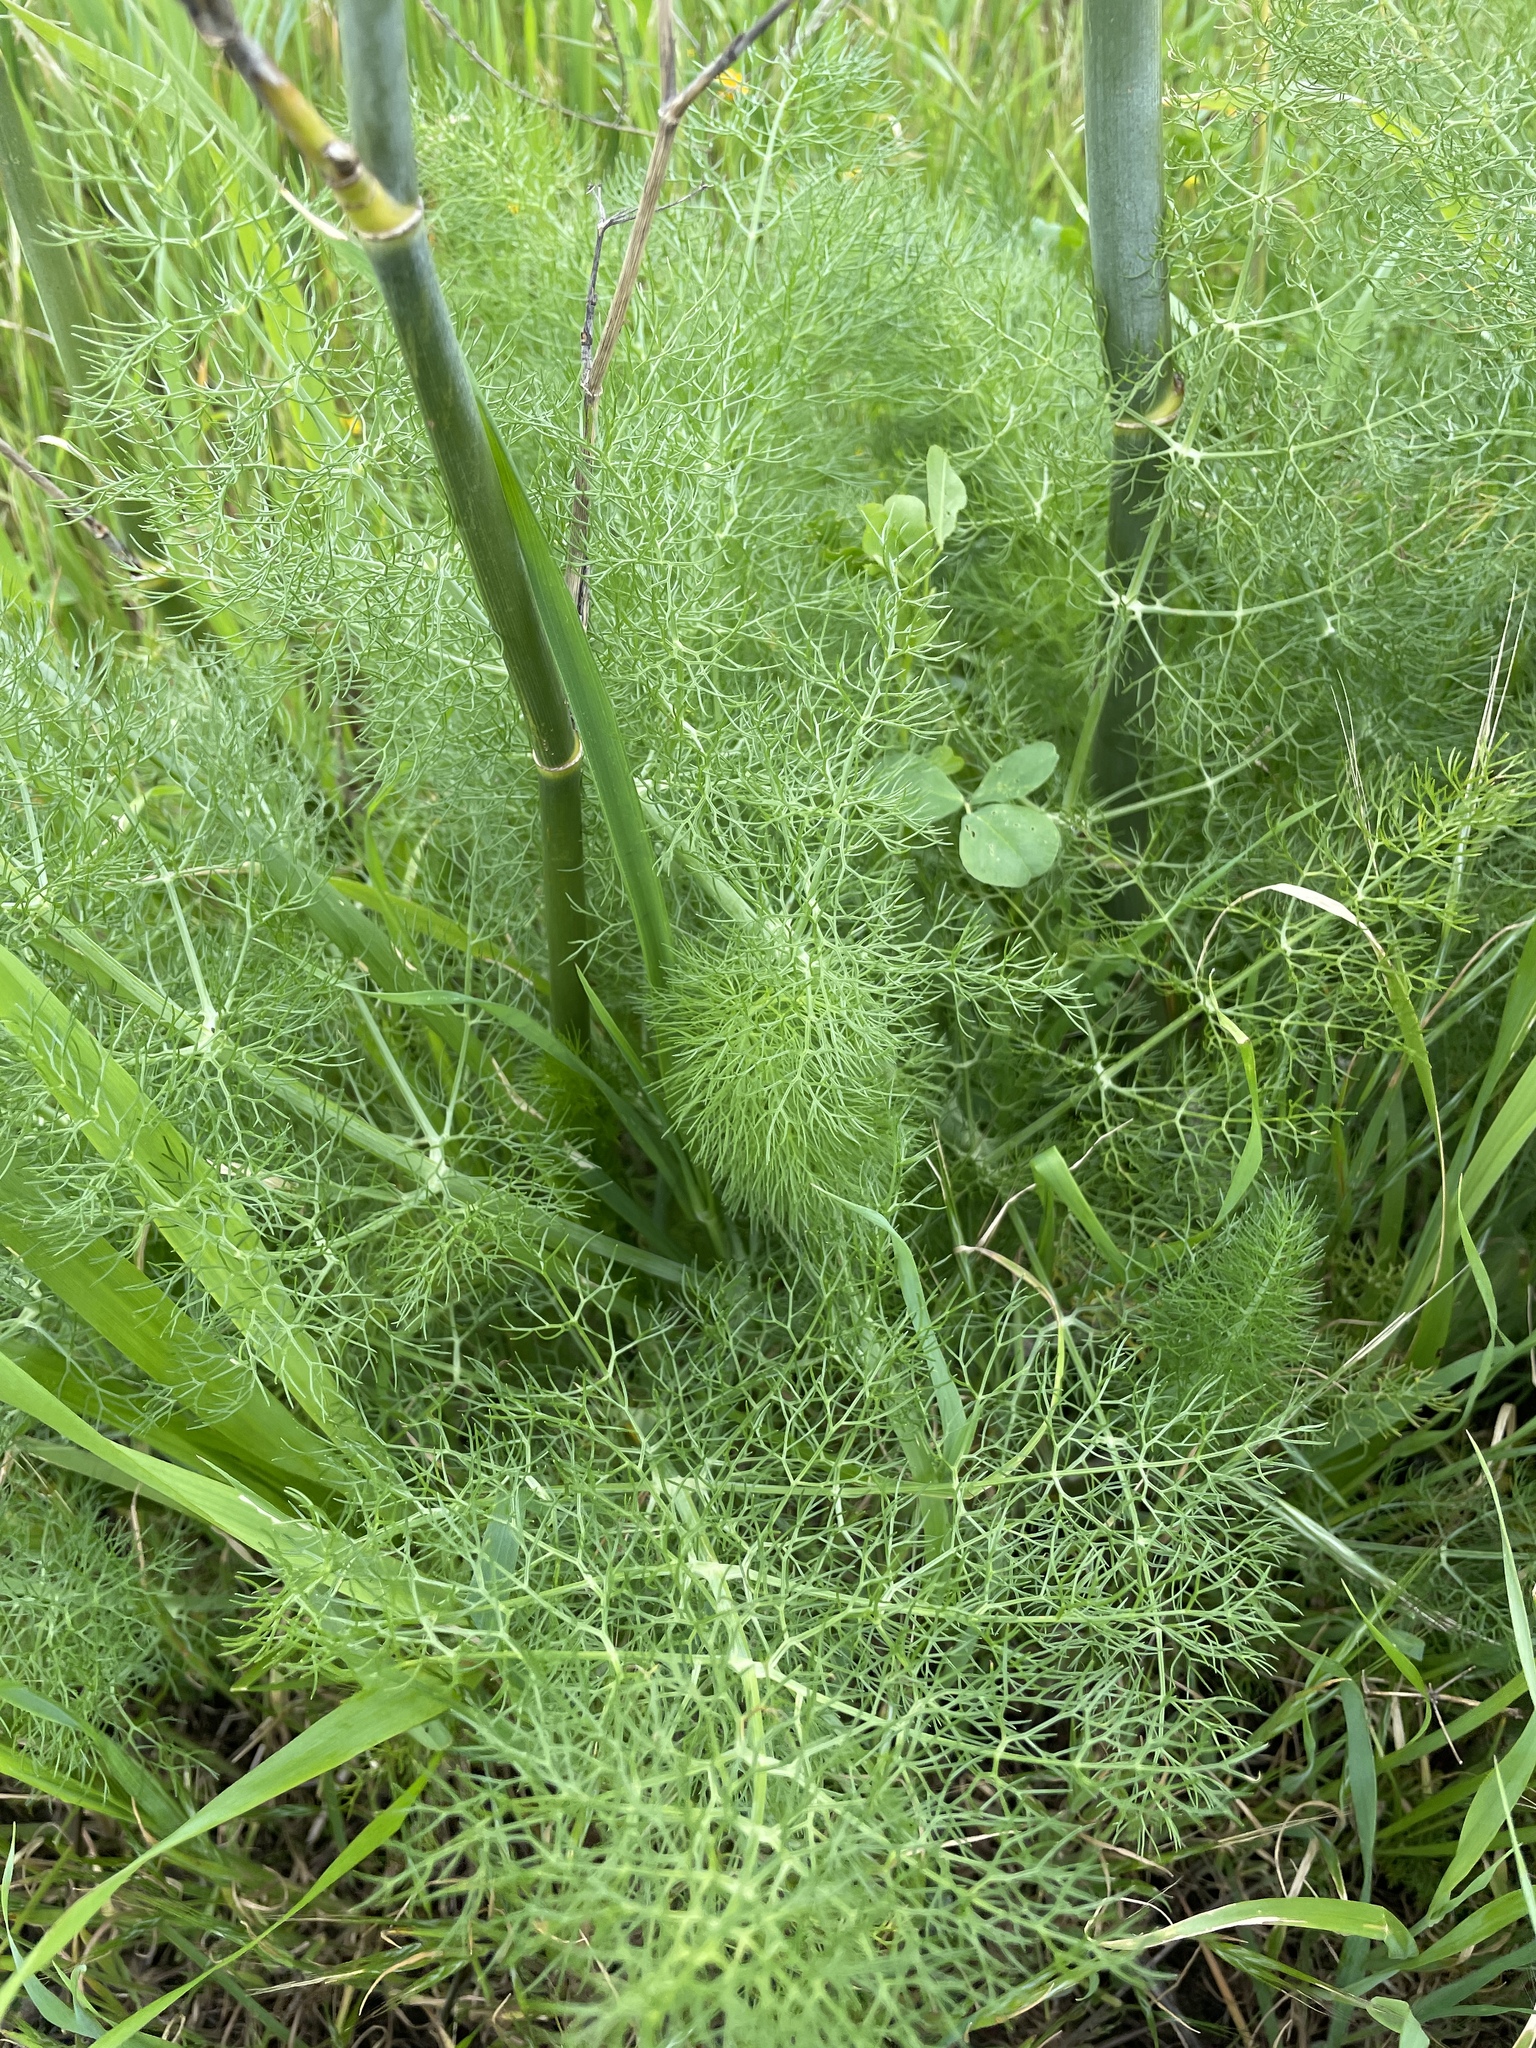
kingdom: Plantae
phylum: Tracheophyta
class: Magnoliopsida
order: Apiales
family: Apiaceae
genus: Foeniculum
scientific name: Foeniculum vulgare
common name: Fennel
